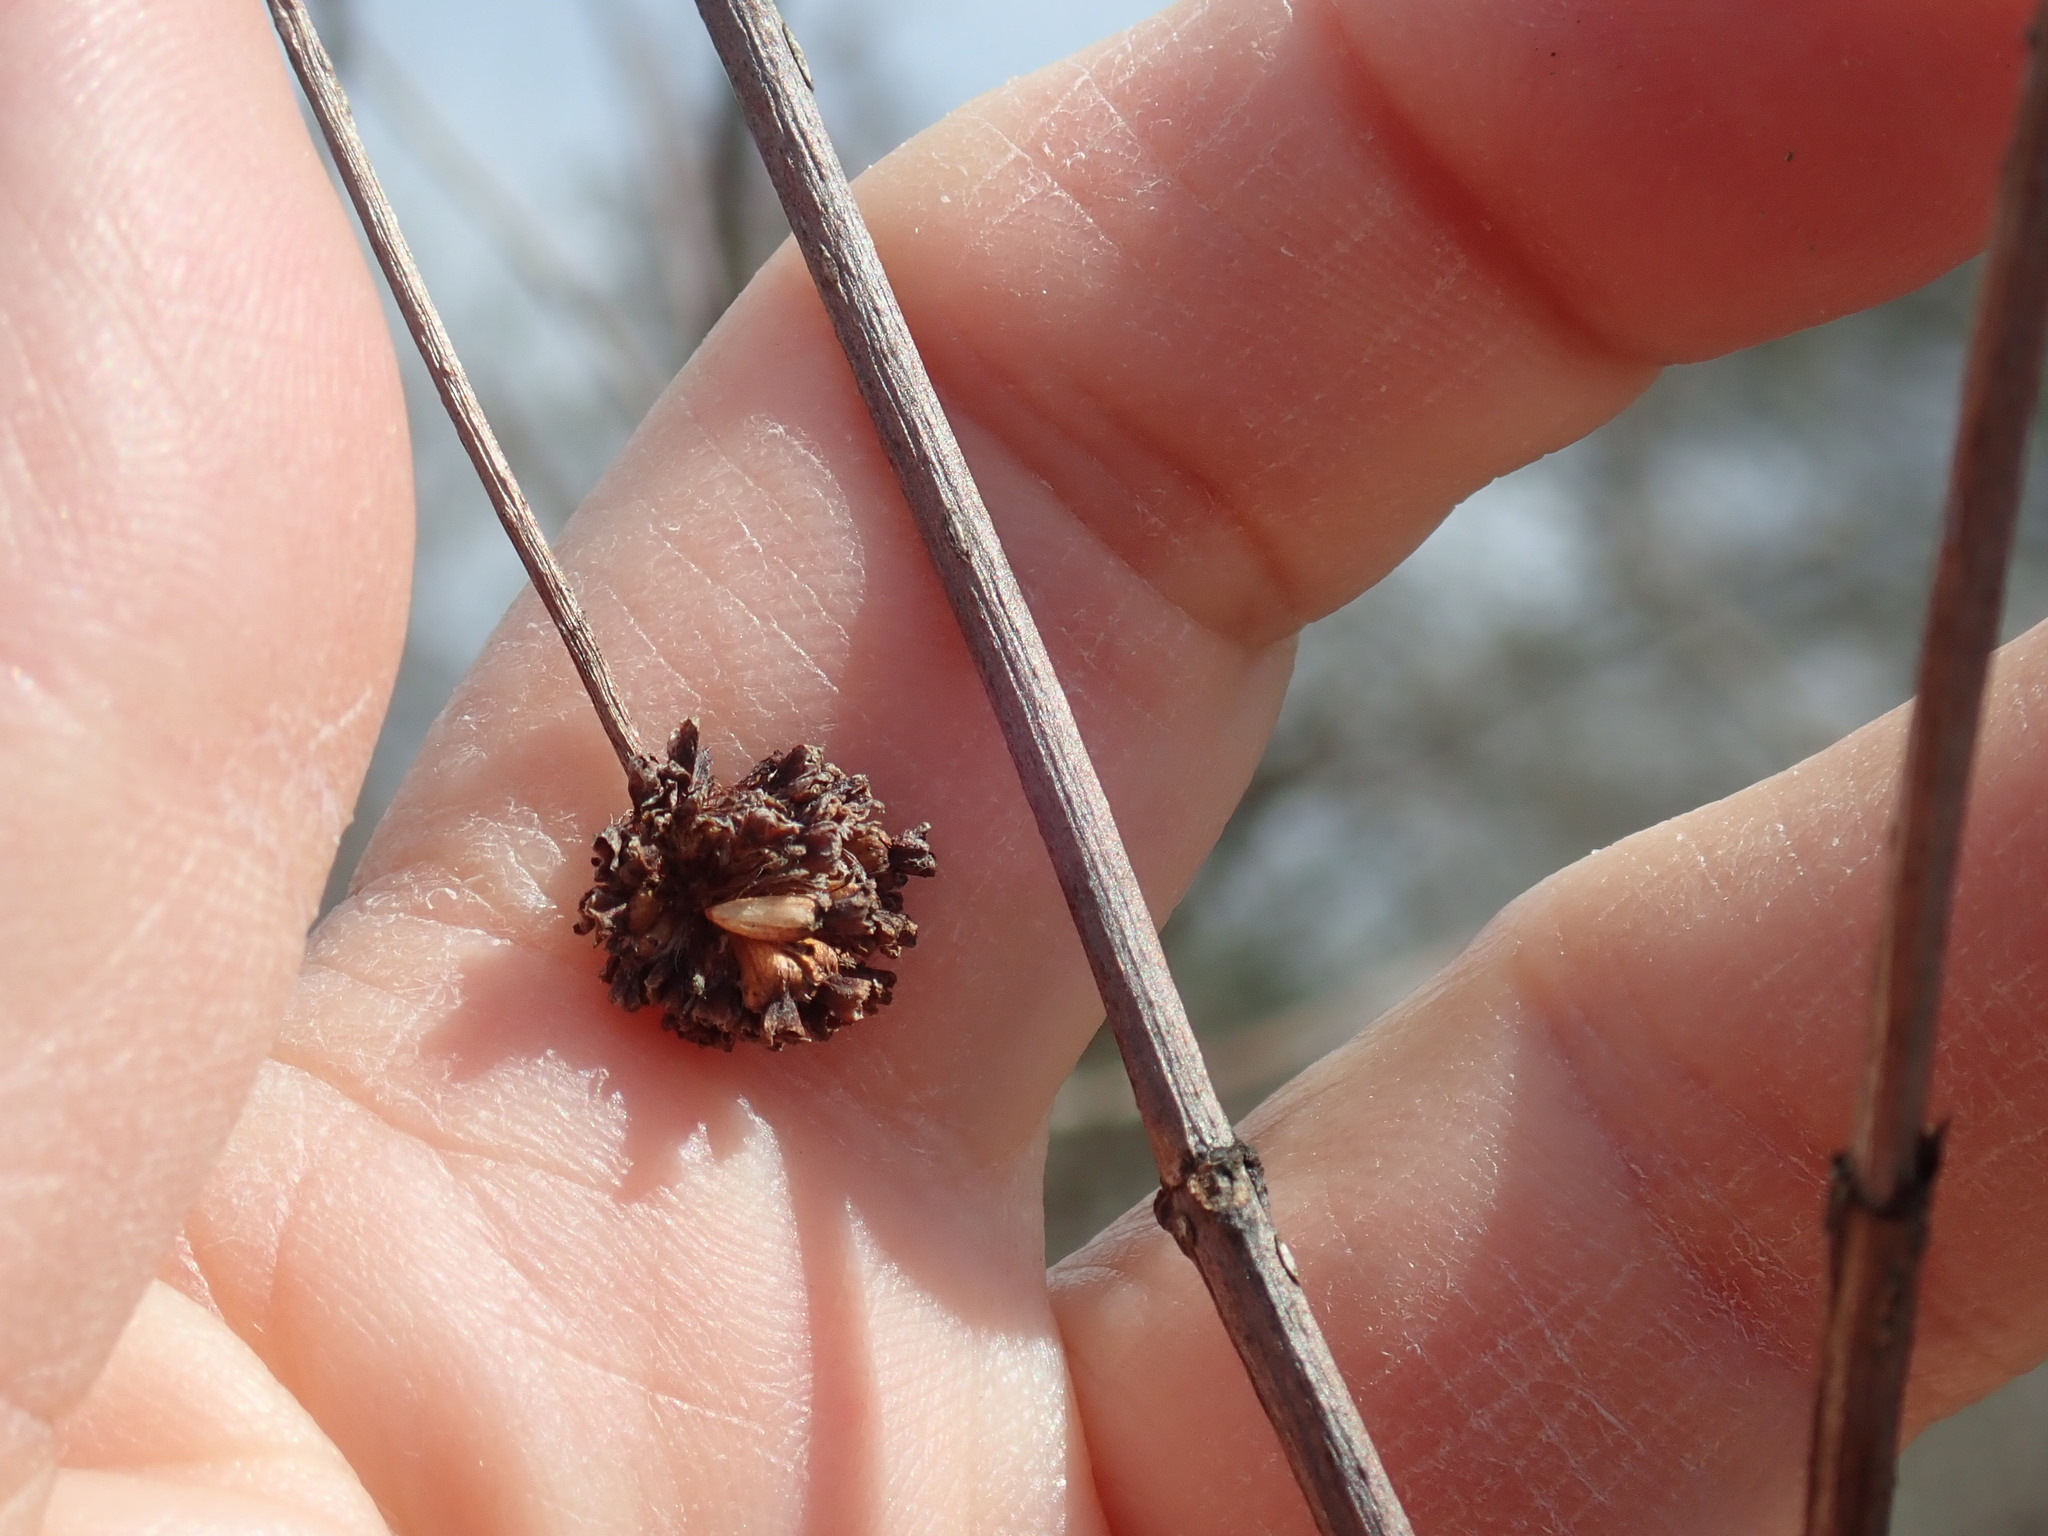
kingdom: Plantae
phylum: Tracheophyta
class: Magnoliopsida
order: Gentianales
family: Rubiaceae
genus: Cephalanthus
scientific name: Cephalanthus occidentalis
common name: Button-willow
